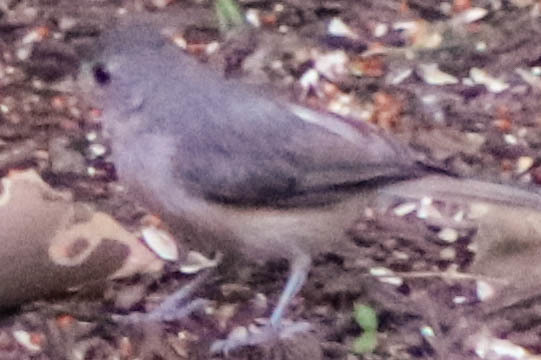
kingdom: Animalia
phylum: Chordata
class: Aves
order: Passeriformes
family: Paridae
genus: Baeolophus
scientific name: Baeolophus bicolor
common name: Tufted titmouse
